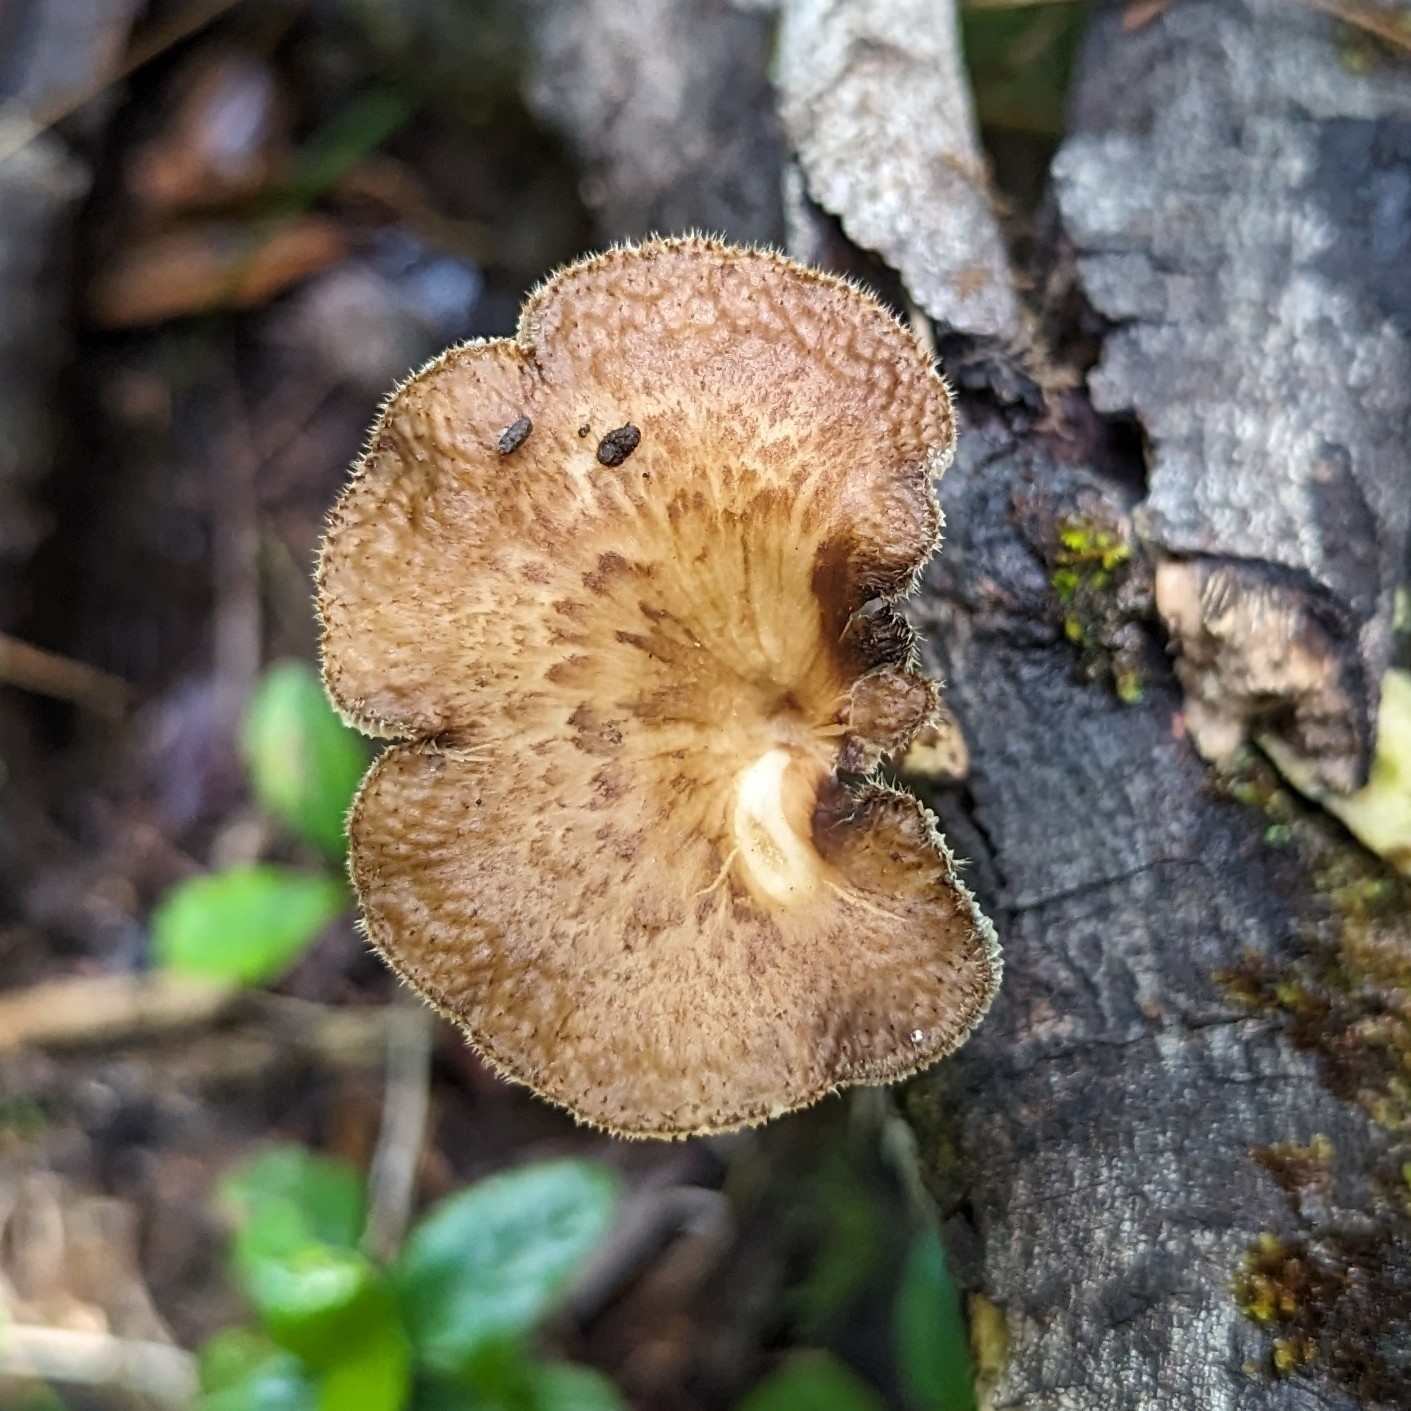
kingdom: Fungi
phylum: Basidiomycota
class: Agaricomycetes
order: Polyporales
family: Polyporaceae
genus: Lentinus
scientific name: Lentinus arcularius
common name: Spring polypore
